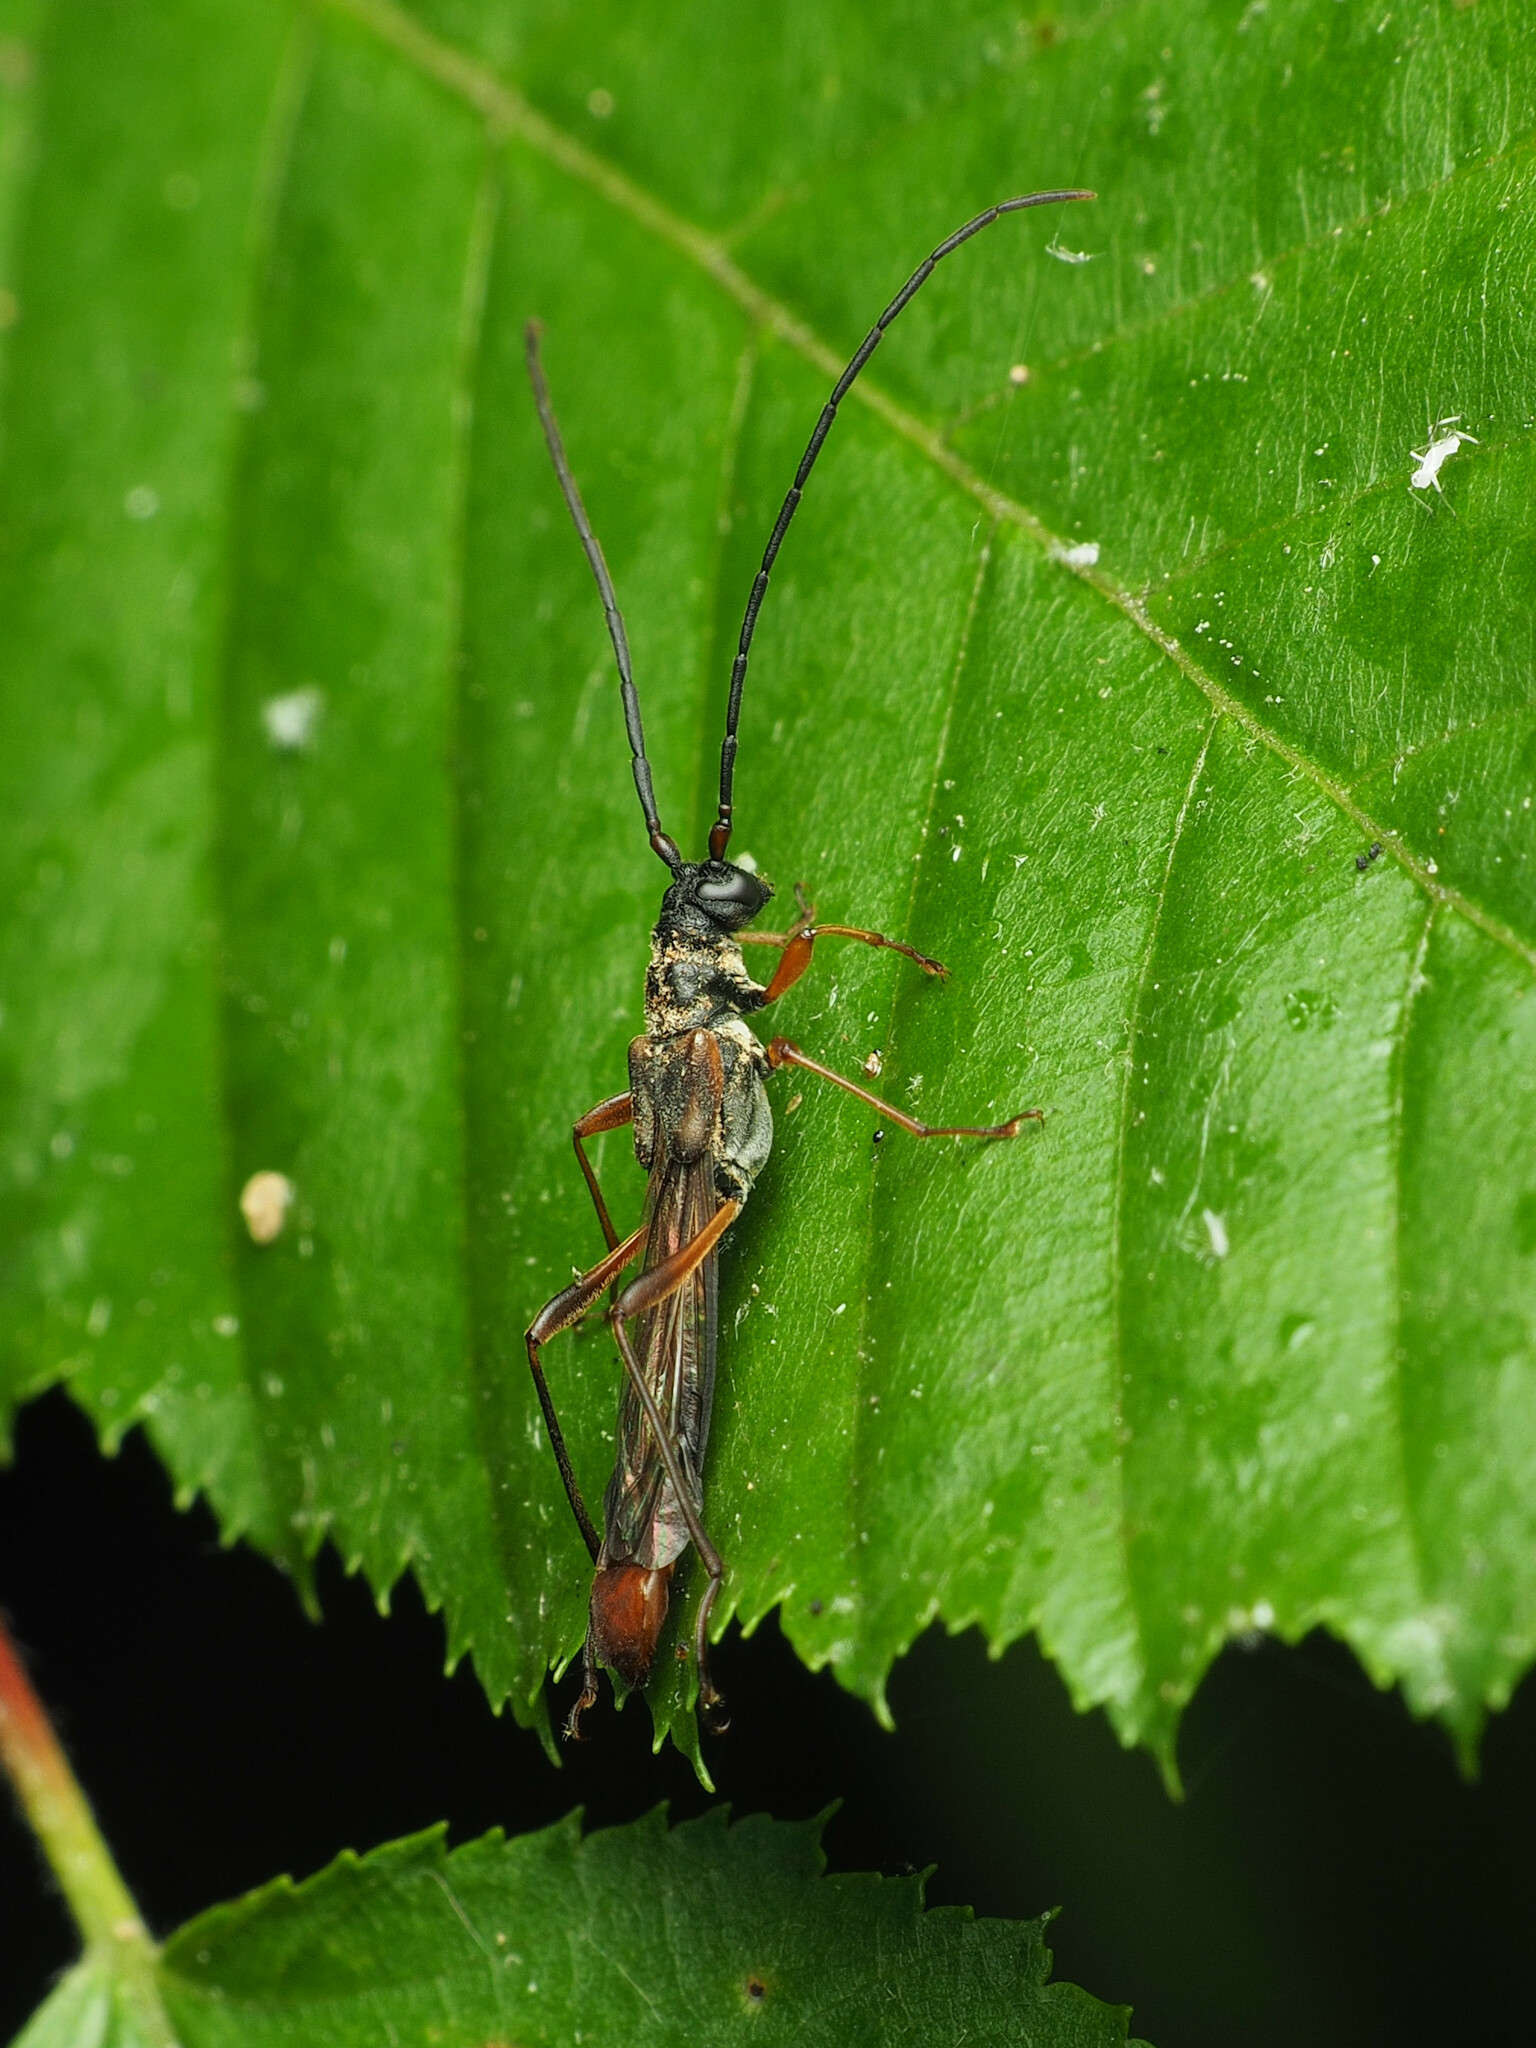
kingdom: Animalia
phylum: Arthropoda
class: Insecta
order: Coleoptera
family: Cerambycidae
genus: Necydalis
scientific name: Necydalis mellita
